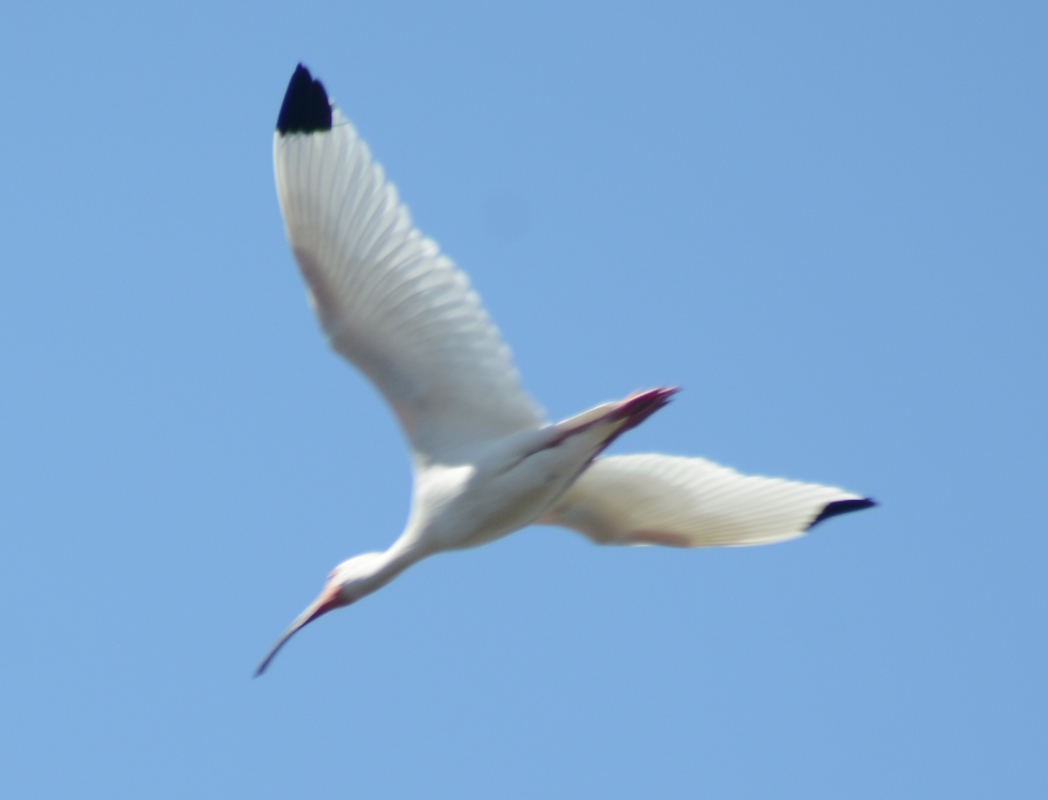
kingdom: Animalia
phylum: Chordata
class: Aves
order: Pelecaniformes
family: Threskiornithidae
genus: Eudocimus
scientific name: Eudocimus albus
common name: White ibis
